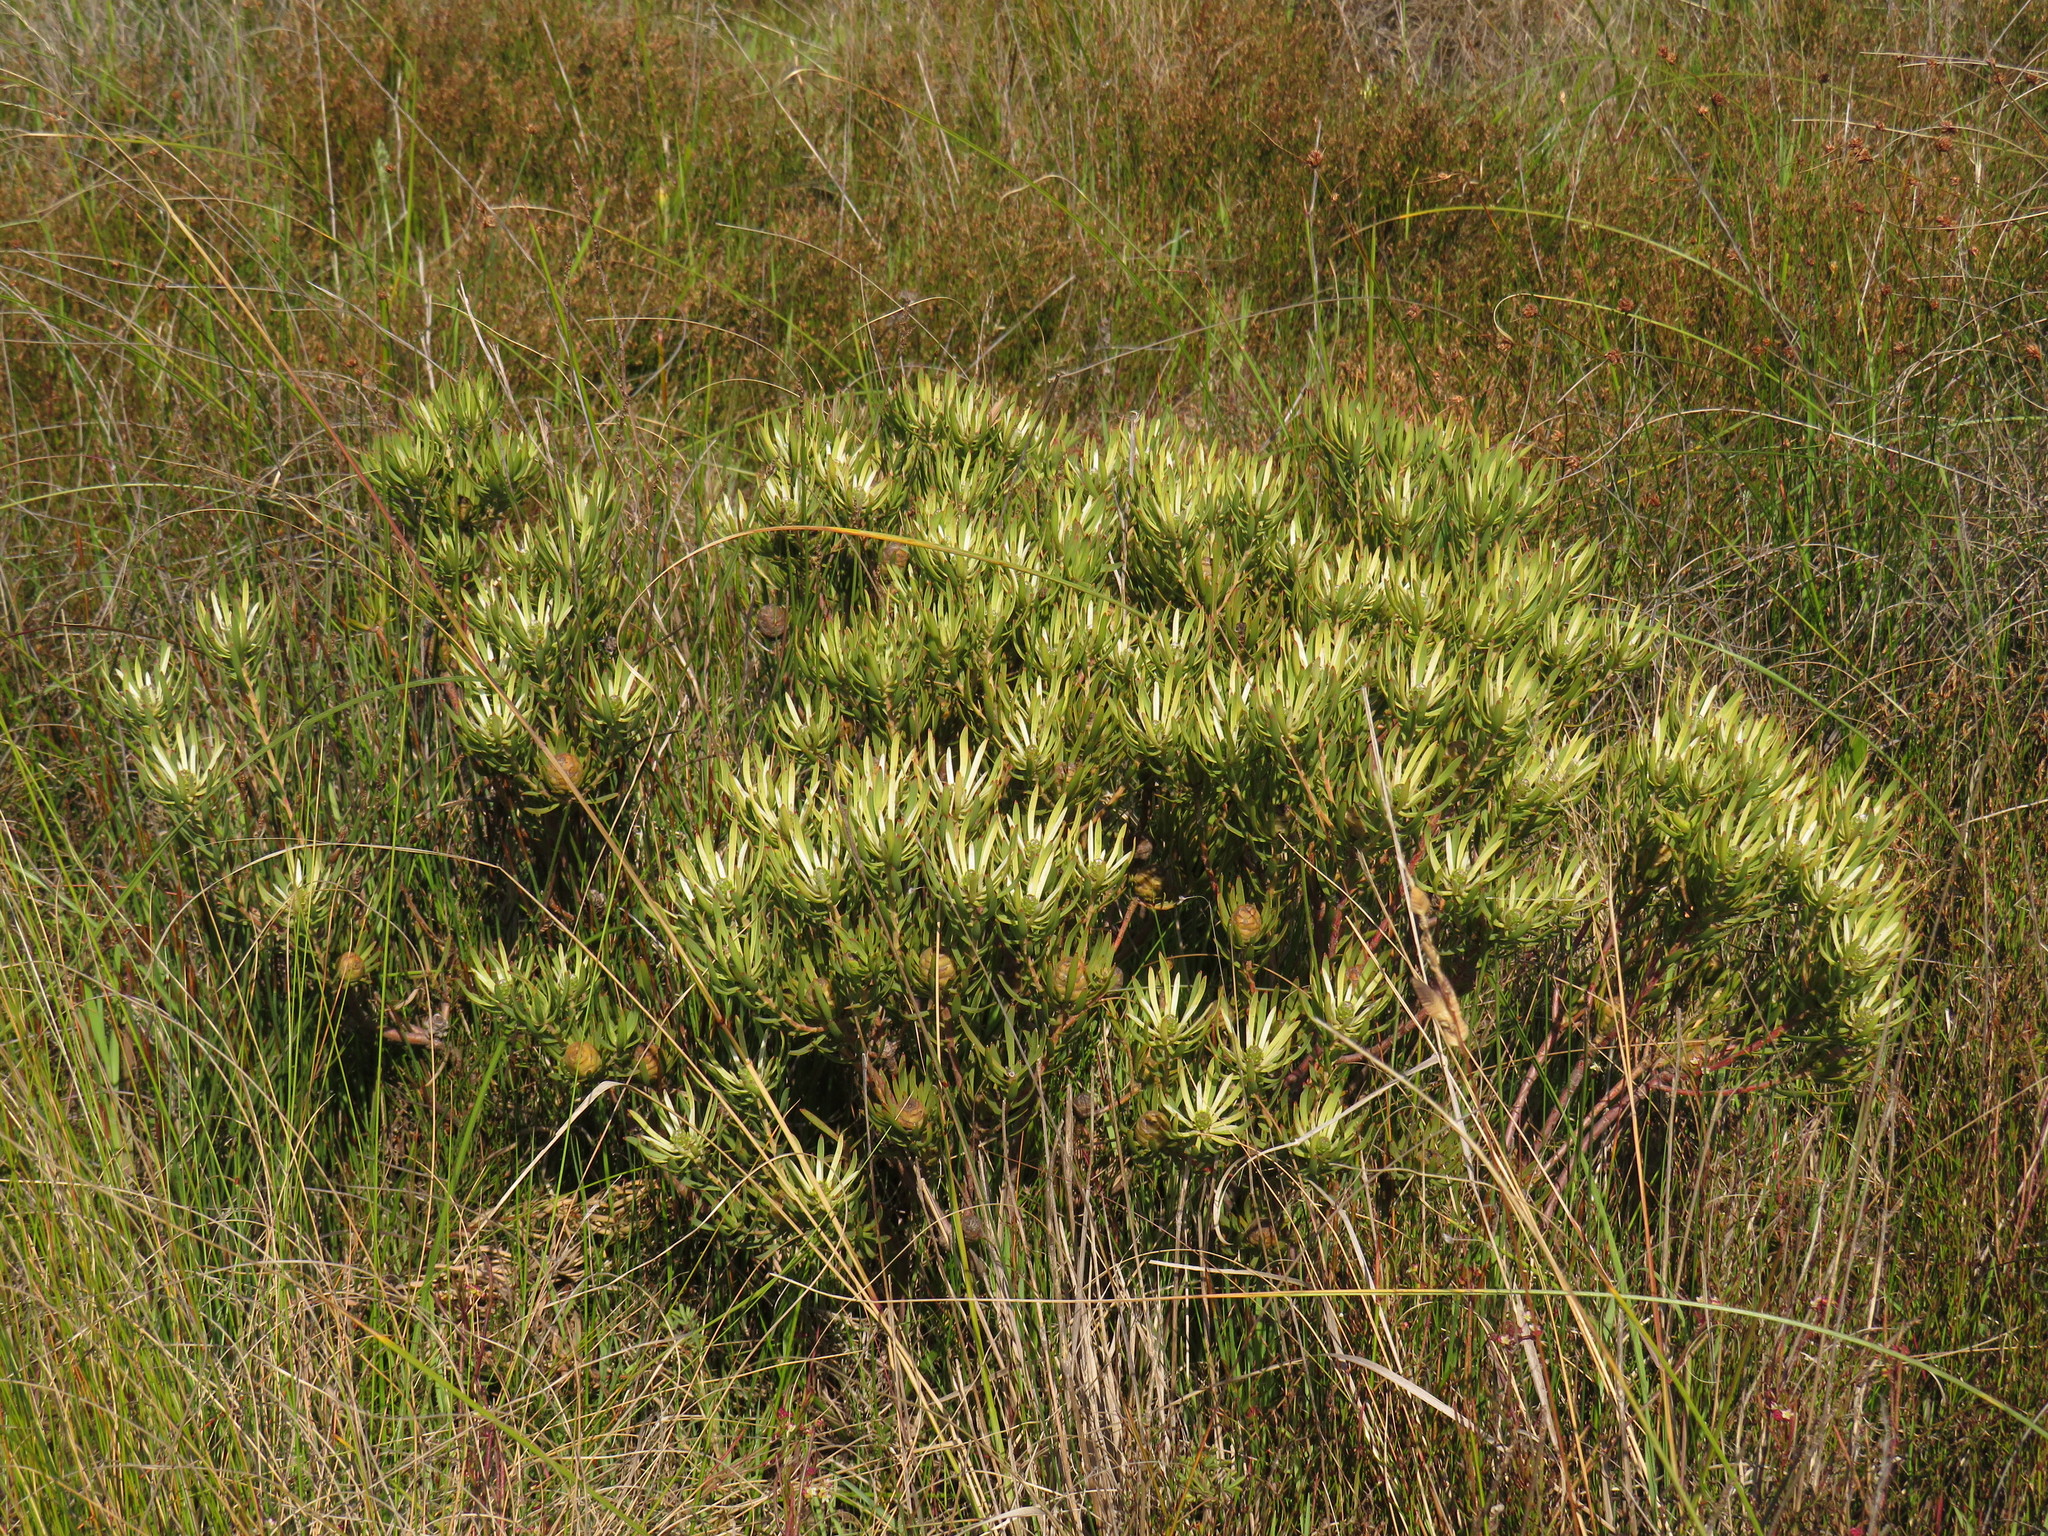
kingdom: Plantae
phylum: Tracheophyta
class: Magnoliopsida
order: Proteales
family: Proteaceae
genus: Leucadendron
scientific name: Leucadendron lanigerum
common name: Shale conebush
